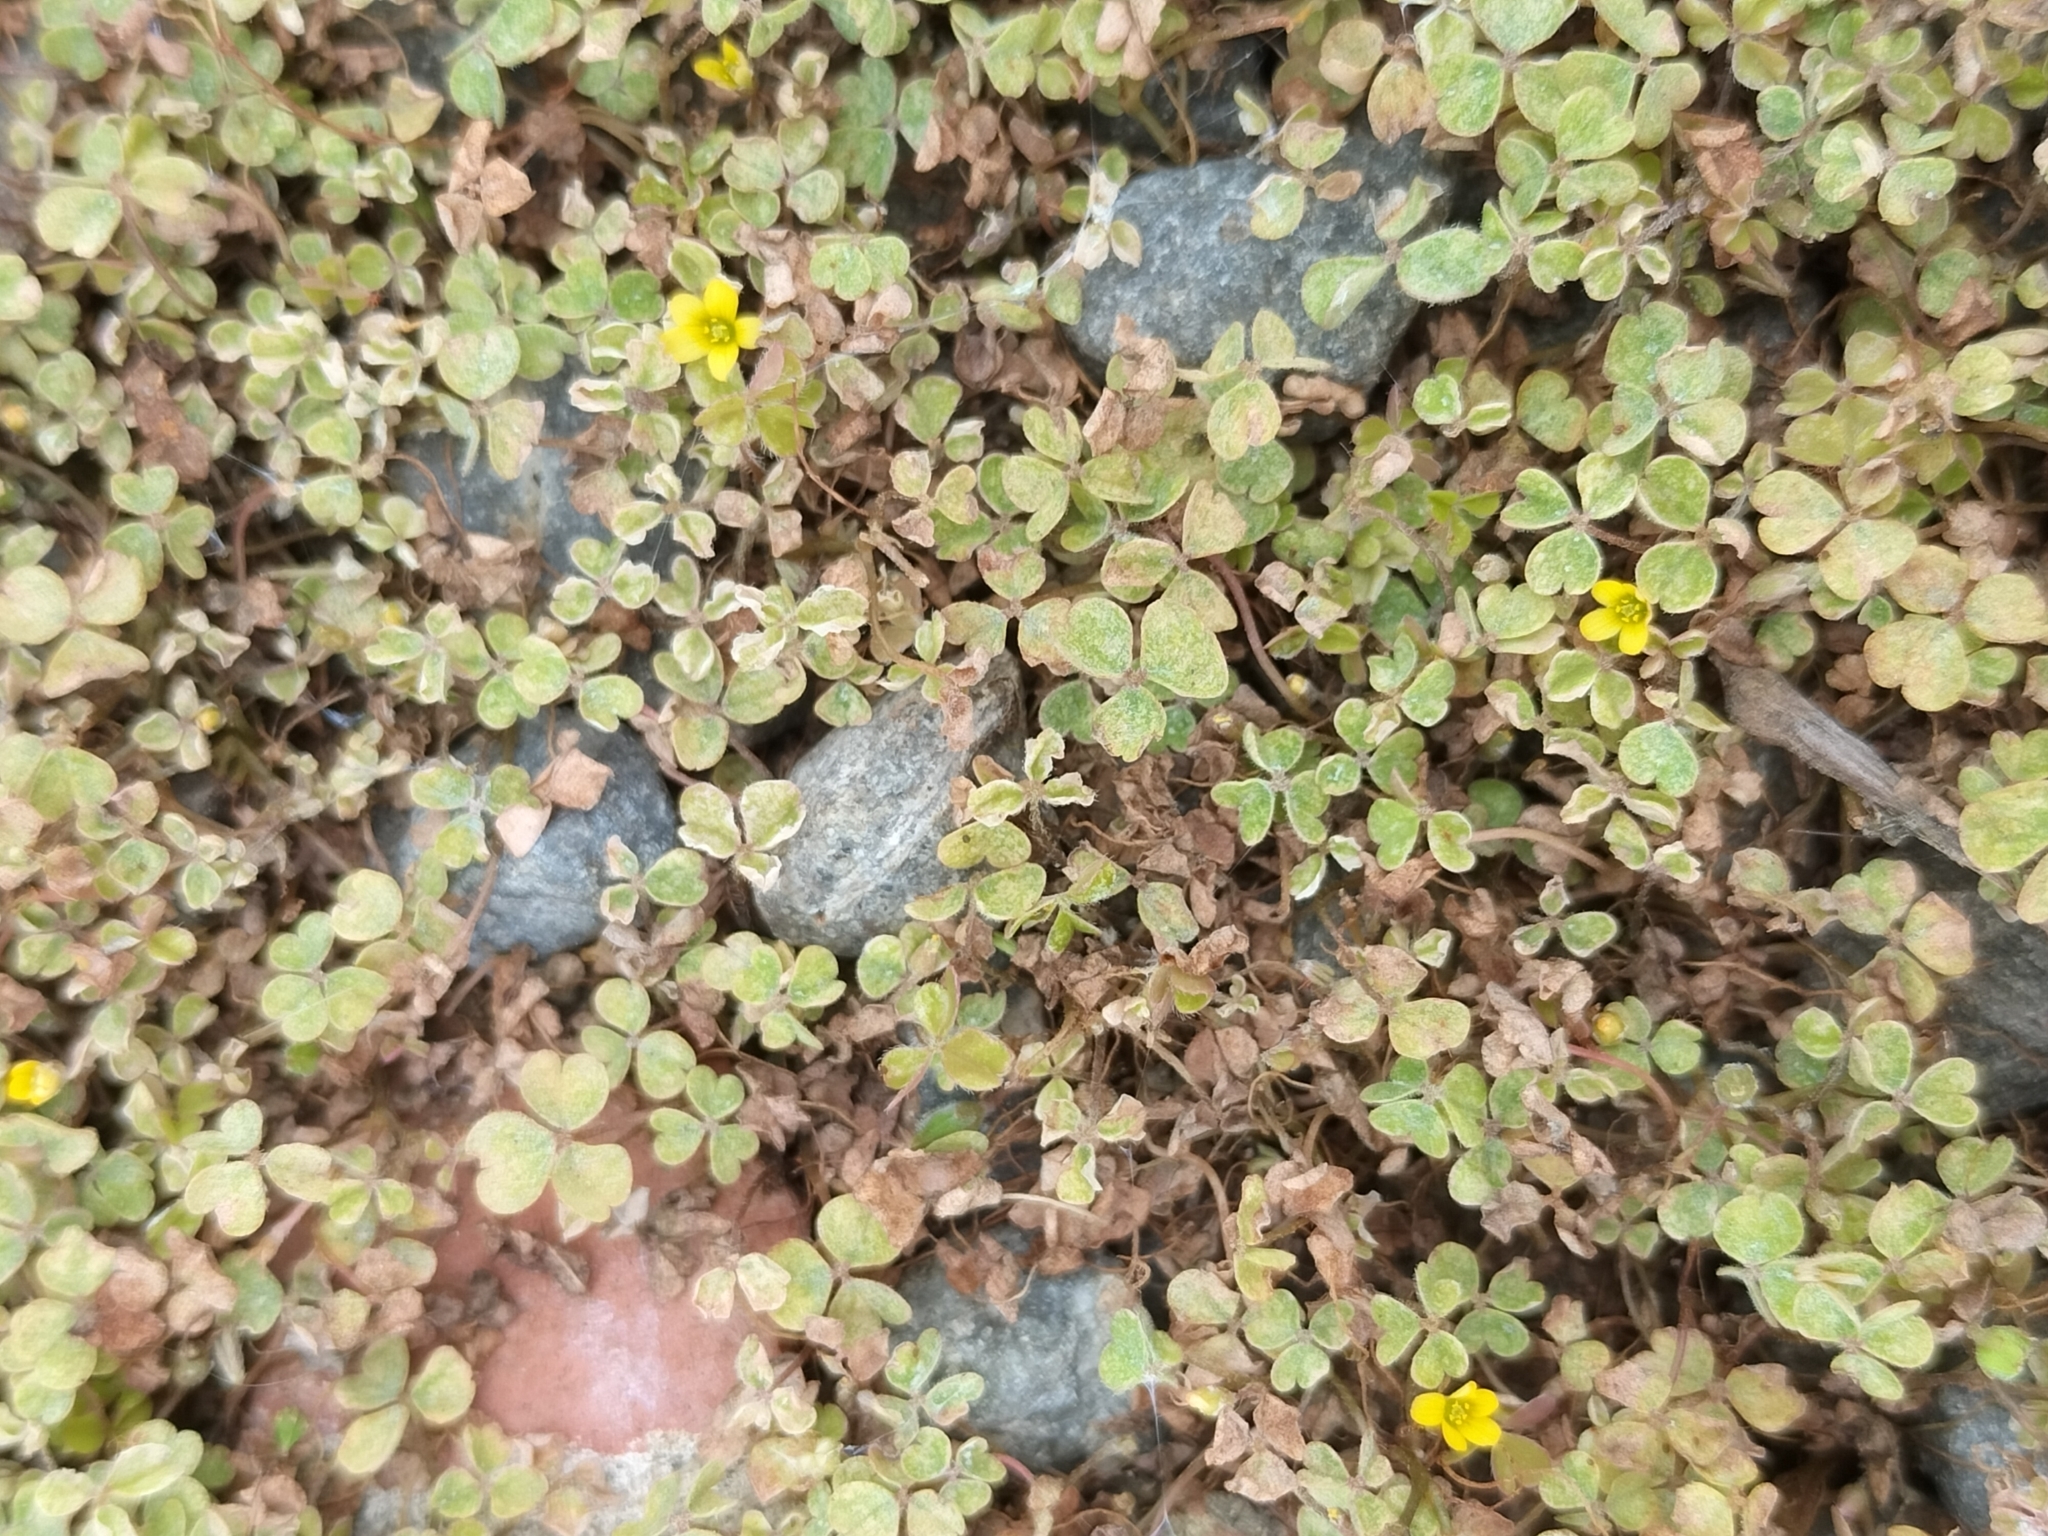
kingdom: Plantae
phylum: Tracheophyta
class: Magnoliopsida
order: Oxalidales
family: Oxalidaceae
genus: Oxalis
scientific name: Oxalis exilis
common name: Least yellow-sorrel
